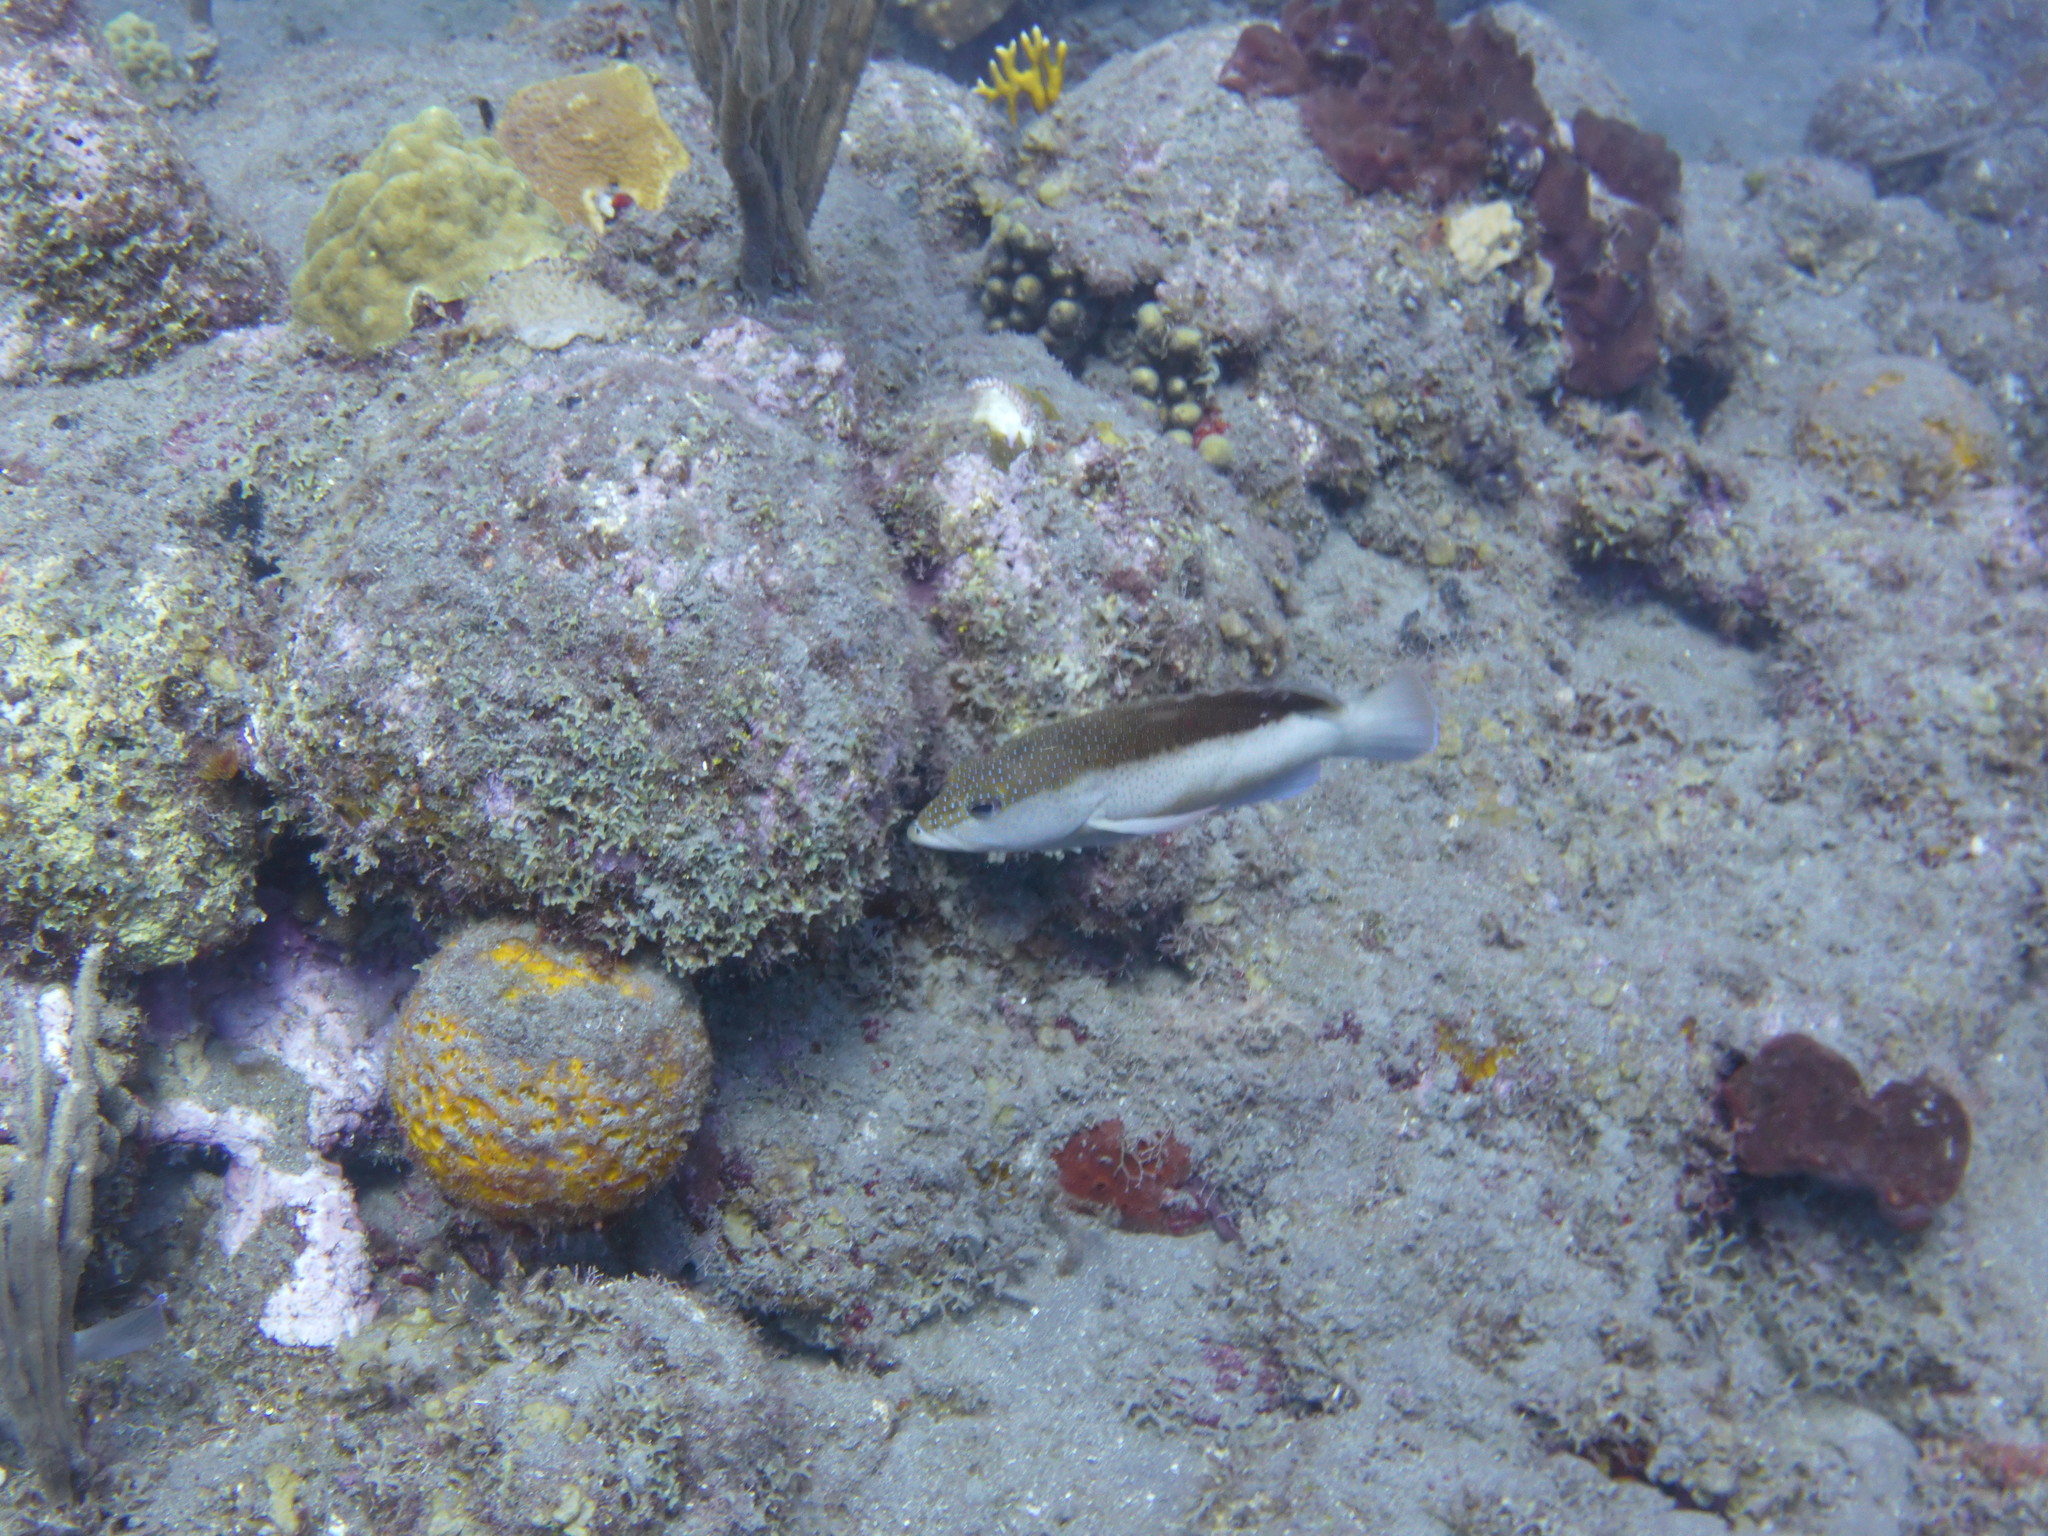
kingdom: Animalia
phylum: Chordata
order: Perciformes
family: Serranidae
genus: Cephalopholis
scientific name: Cephalopholis fulva
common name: Butterfish
